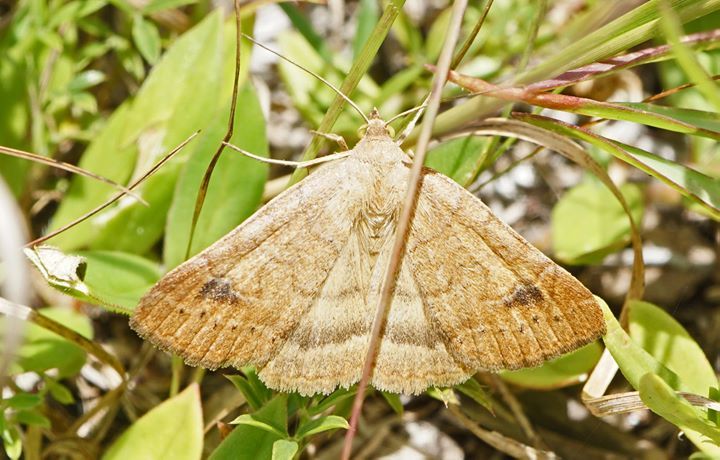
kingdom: Animalia
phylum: Arthropoda
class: Insecta
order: Lepidoptera
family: Erebidae
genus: Caenurgia
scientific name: Caenurgia chloropha
